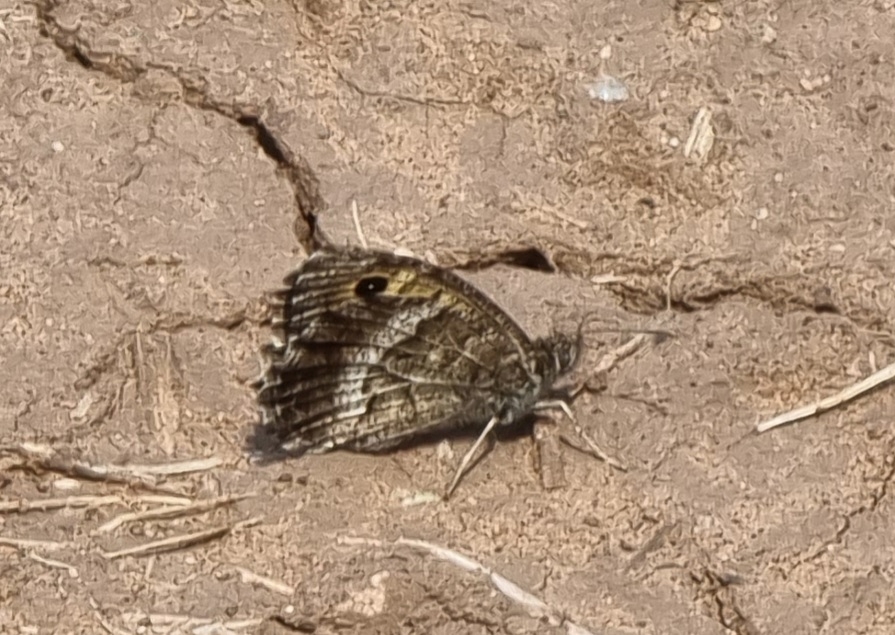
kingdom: Animalia
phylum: Arthropoda
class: Insecta
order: Lepidoptera
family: Nymphalidae
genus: Arethusana
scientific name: Arethusana arethusa
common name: False grayling
